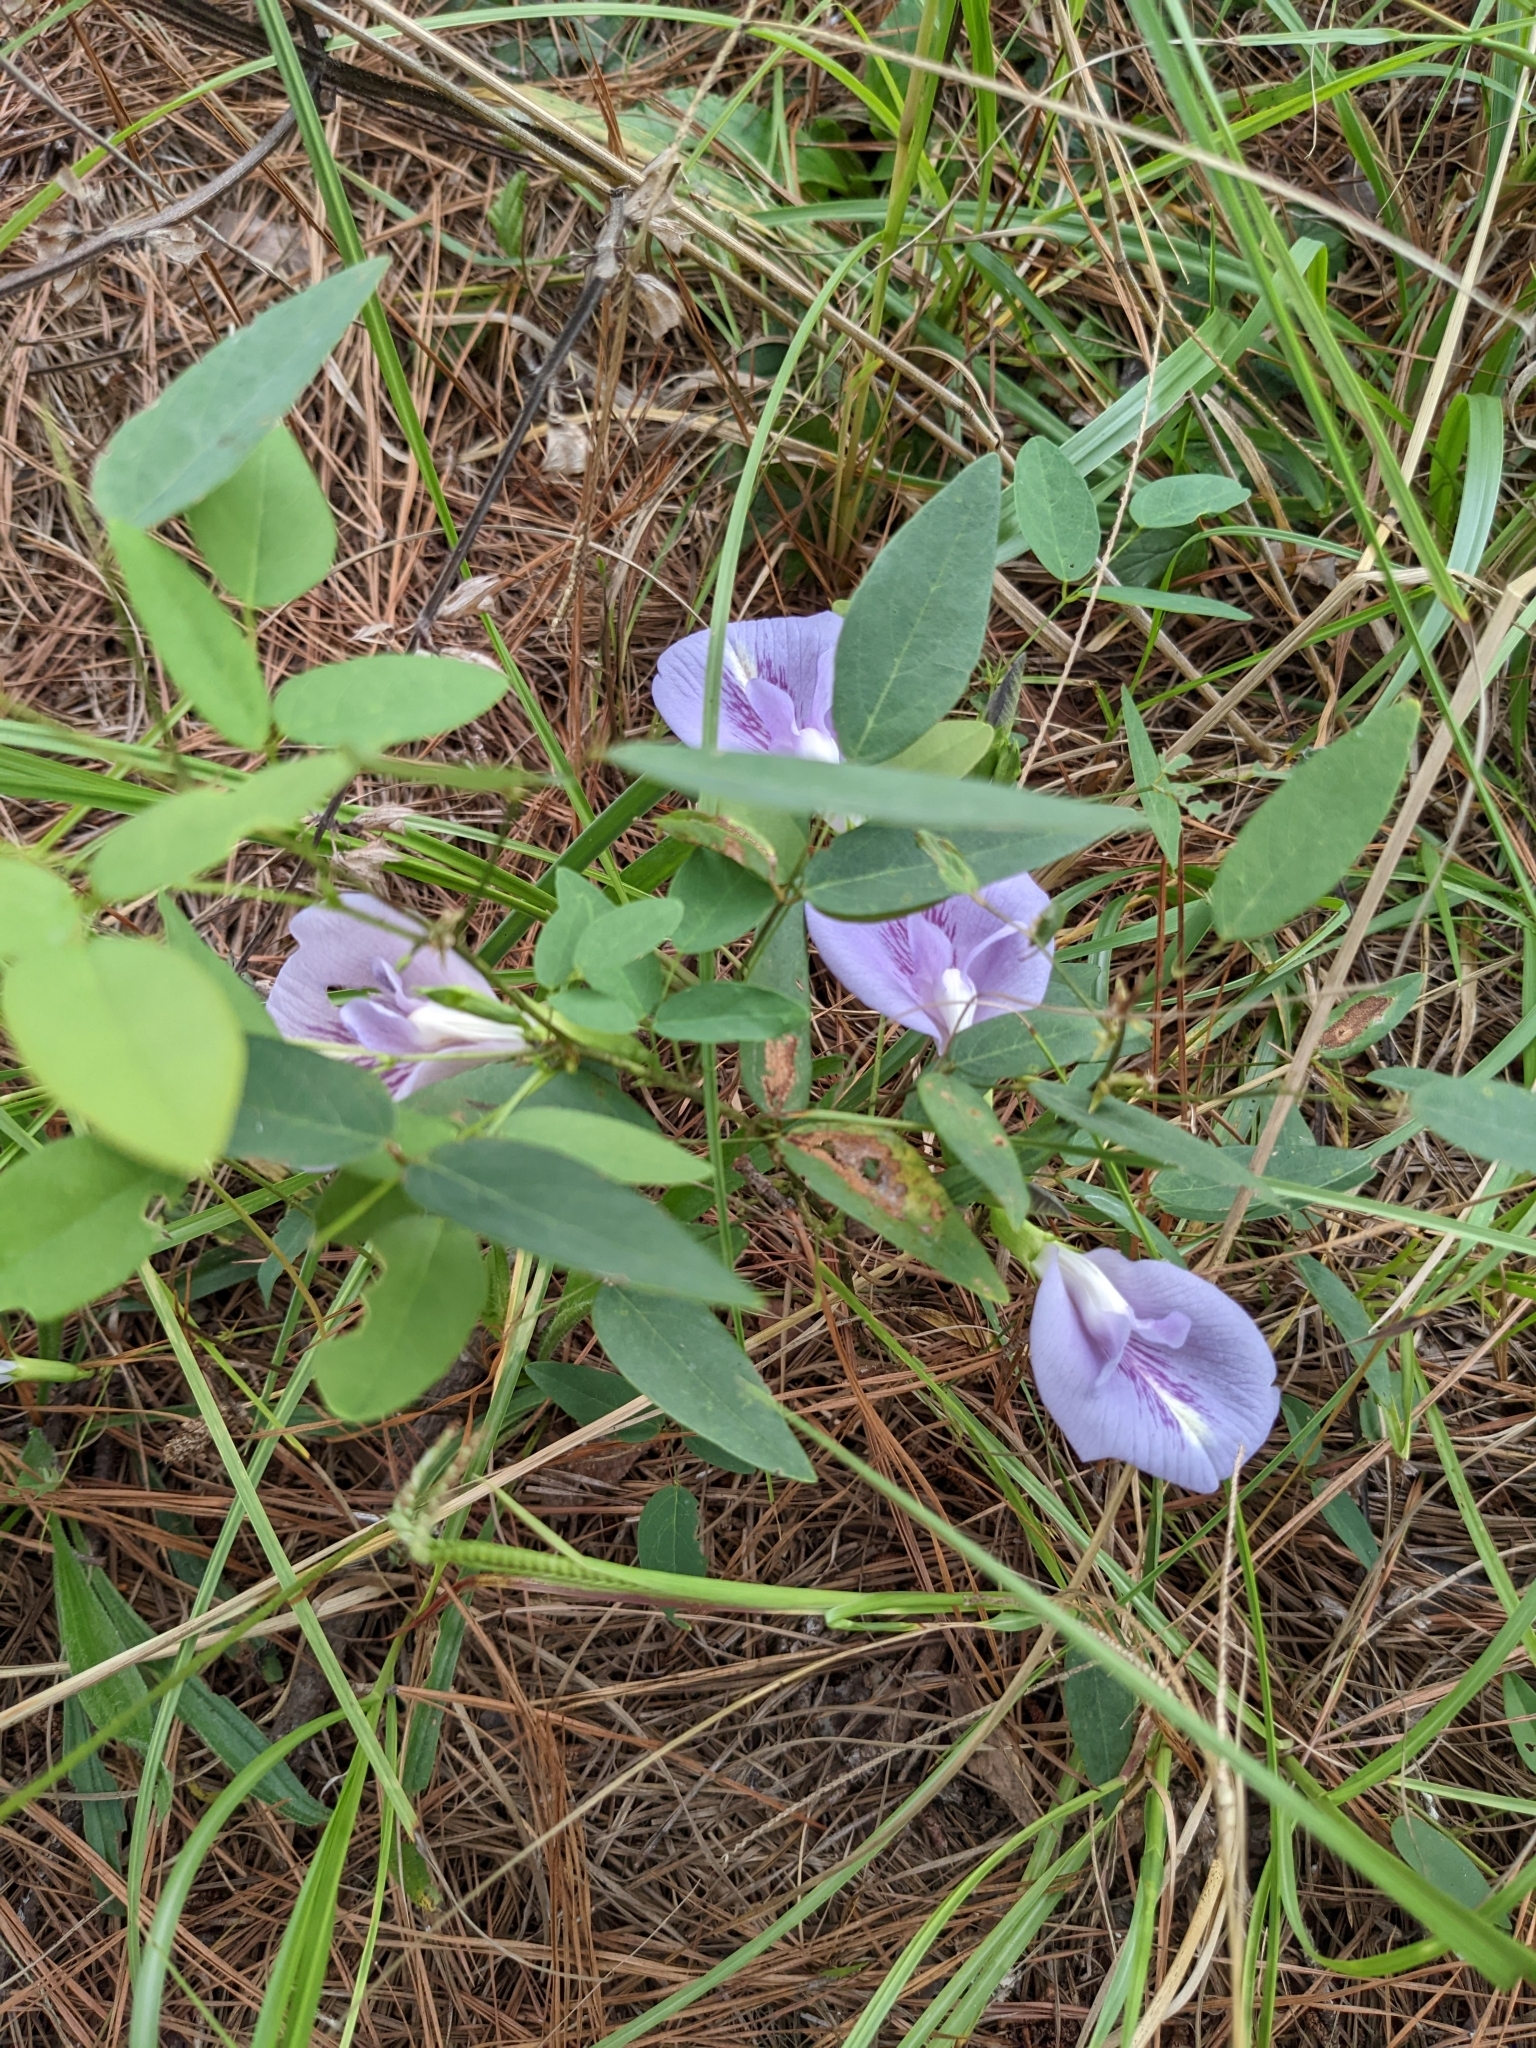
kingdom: Plantae
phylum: Tracheophyta
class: Magnoliopsida
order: Fabales
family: Fabaceae
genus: Clitoria
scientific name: Clitoria mariana
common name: Butterfly-pea
